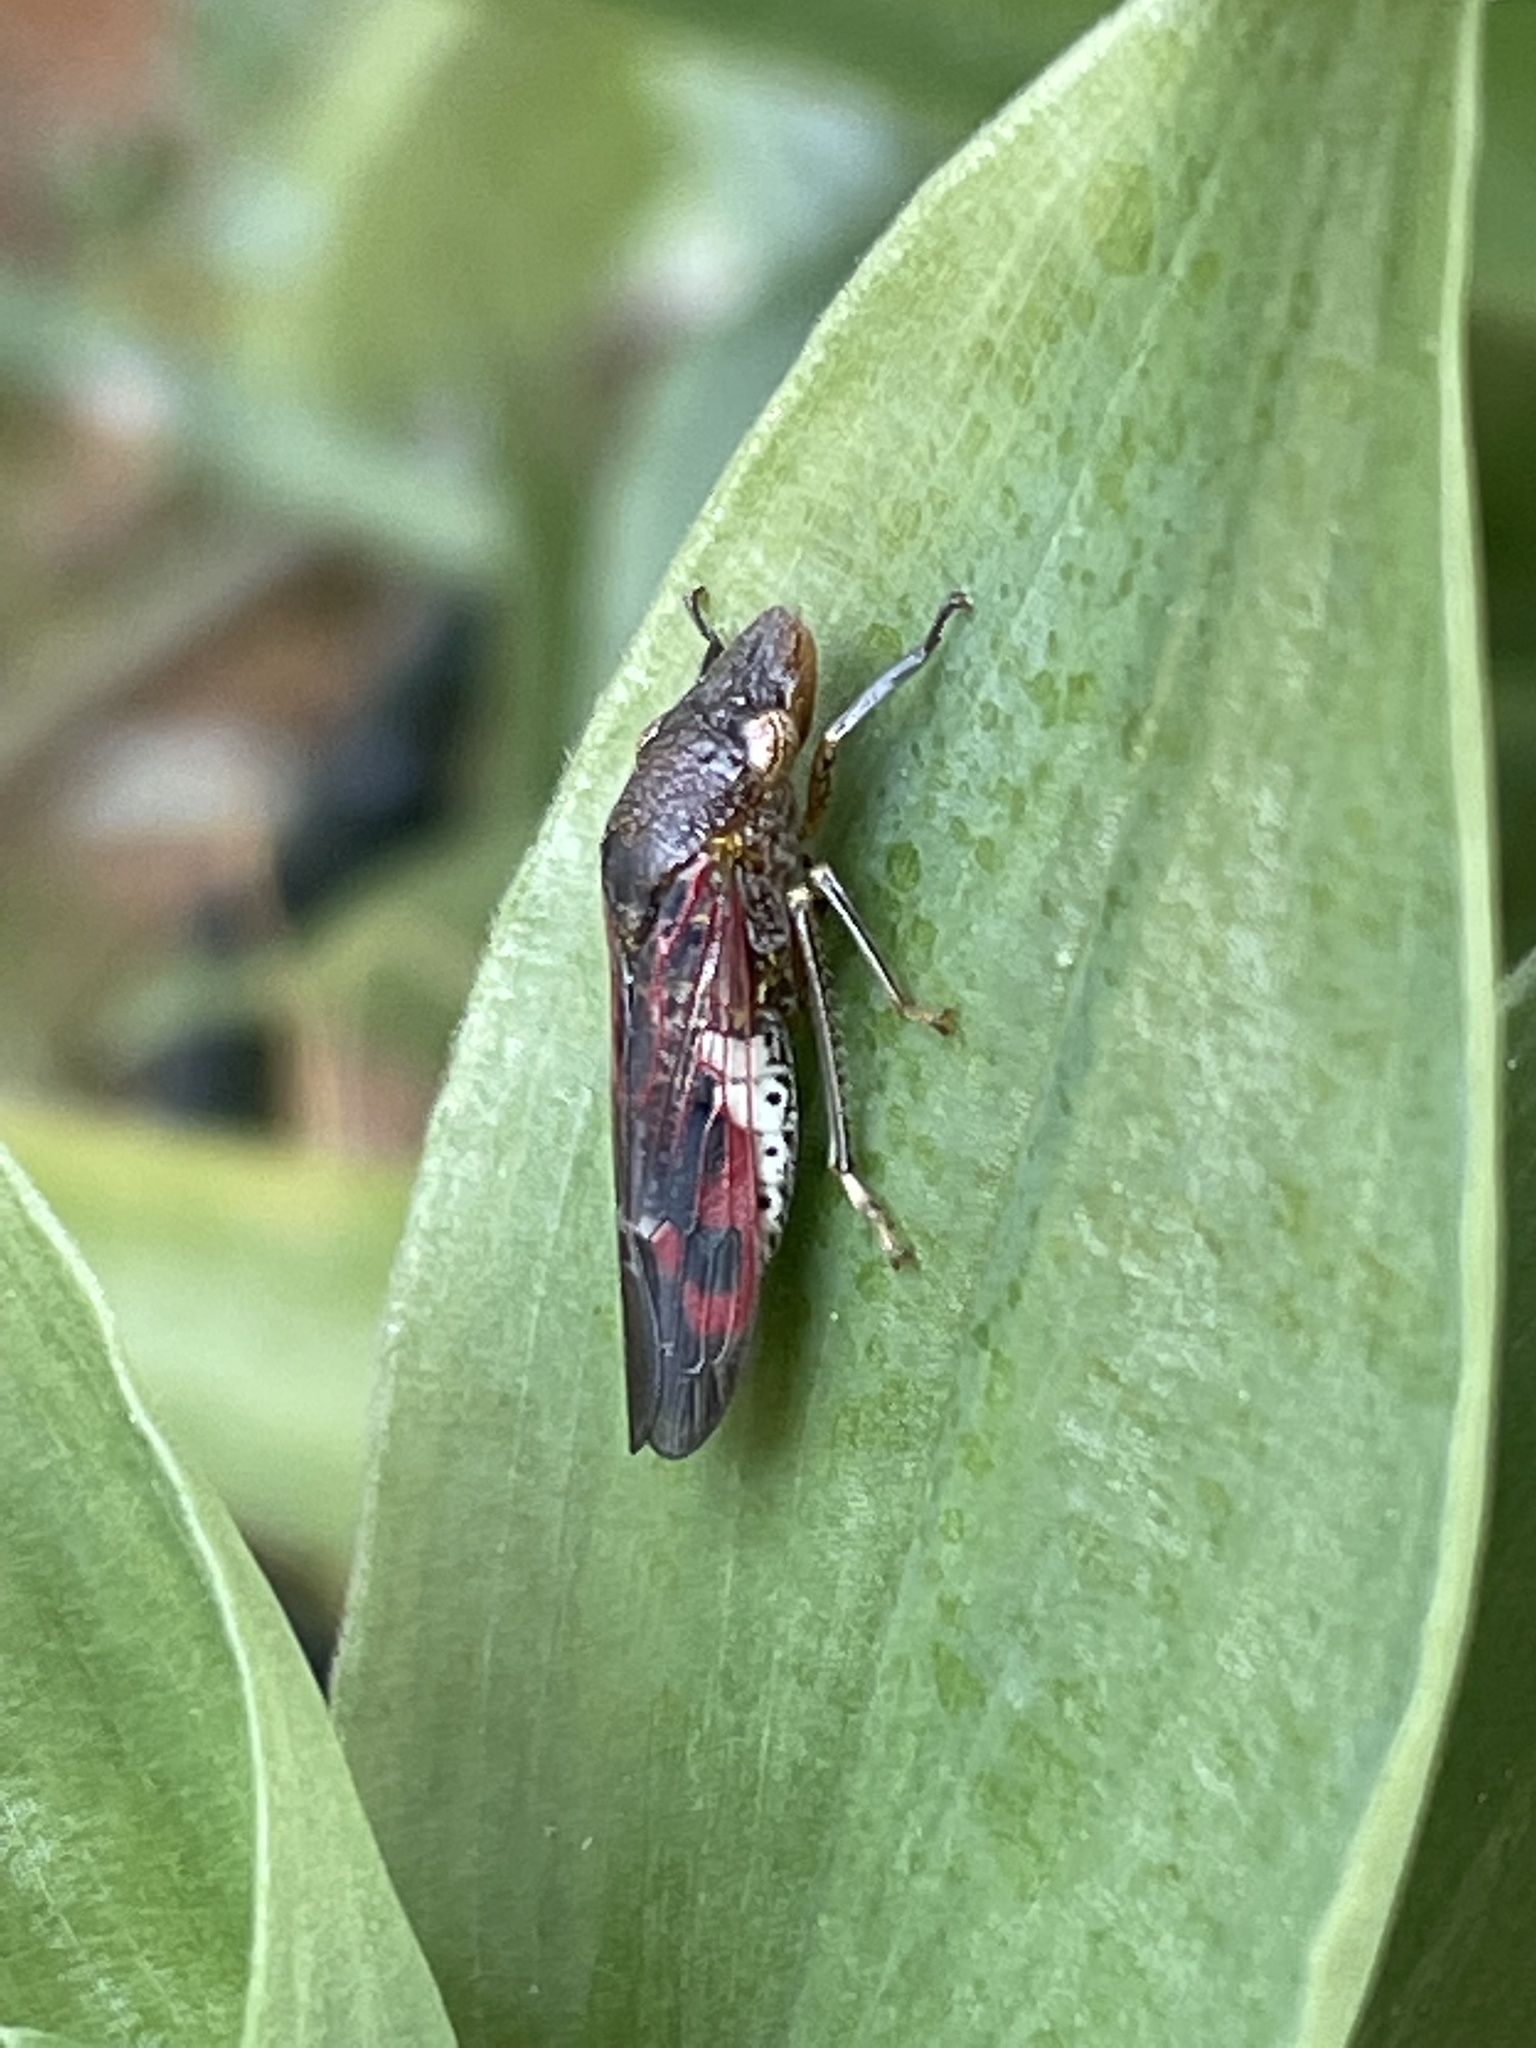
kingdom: Animalia
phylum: Arthropoda
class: Insecta
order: Hemiptera
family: Cicadellidae
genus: Homalodisca
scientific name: Homalodisca vitripennis
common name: Glassy-winged sharpshooter
